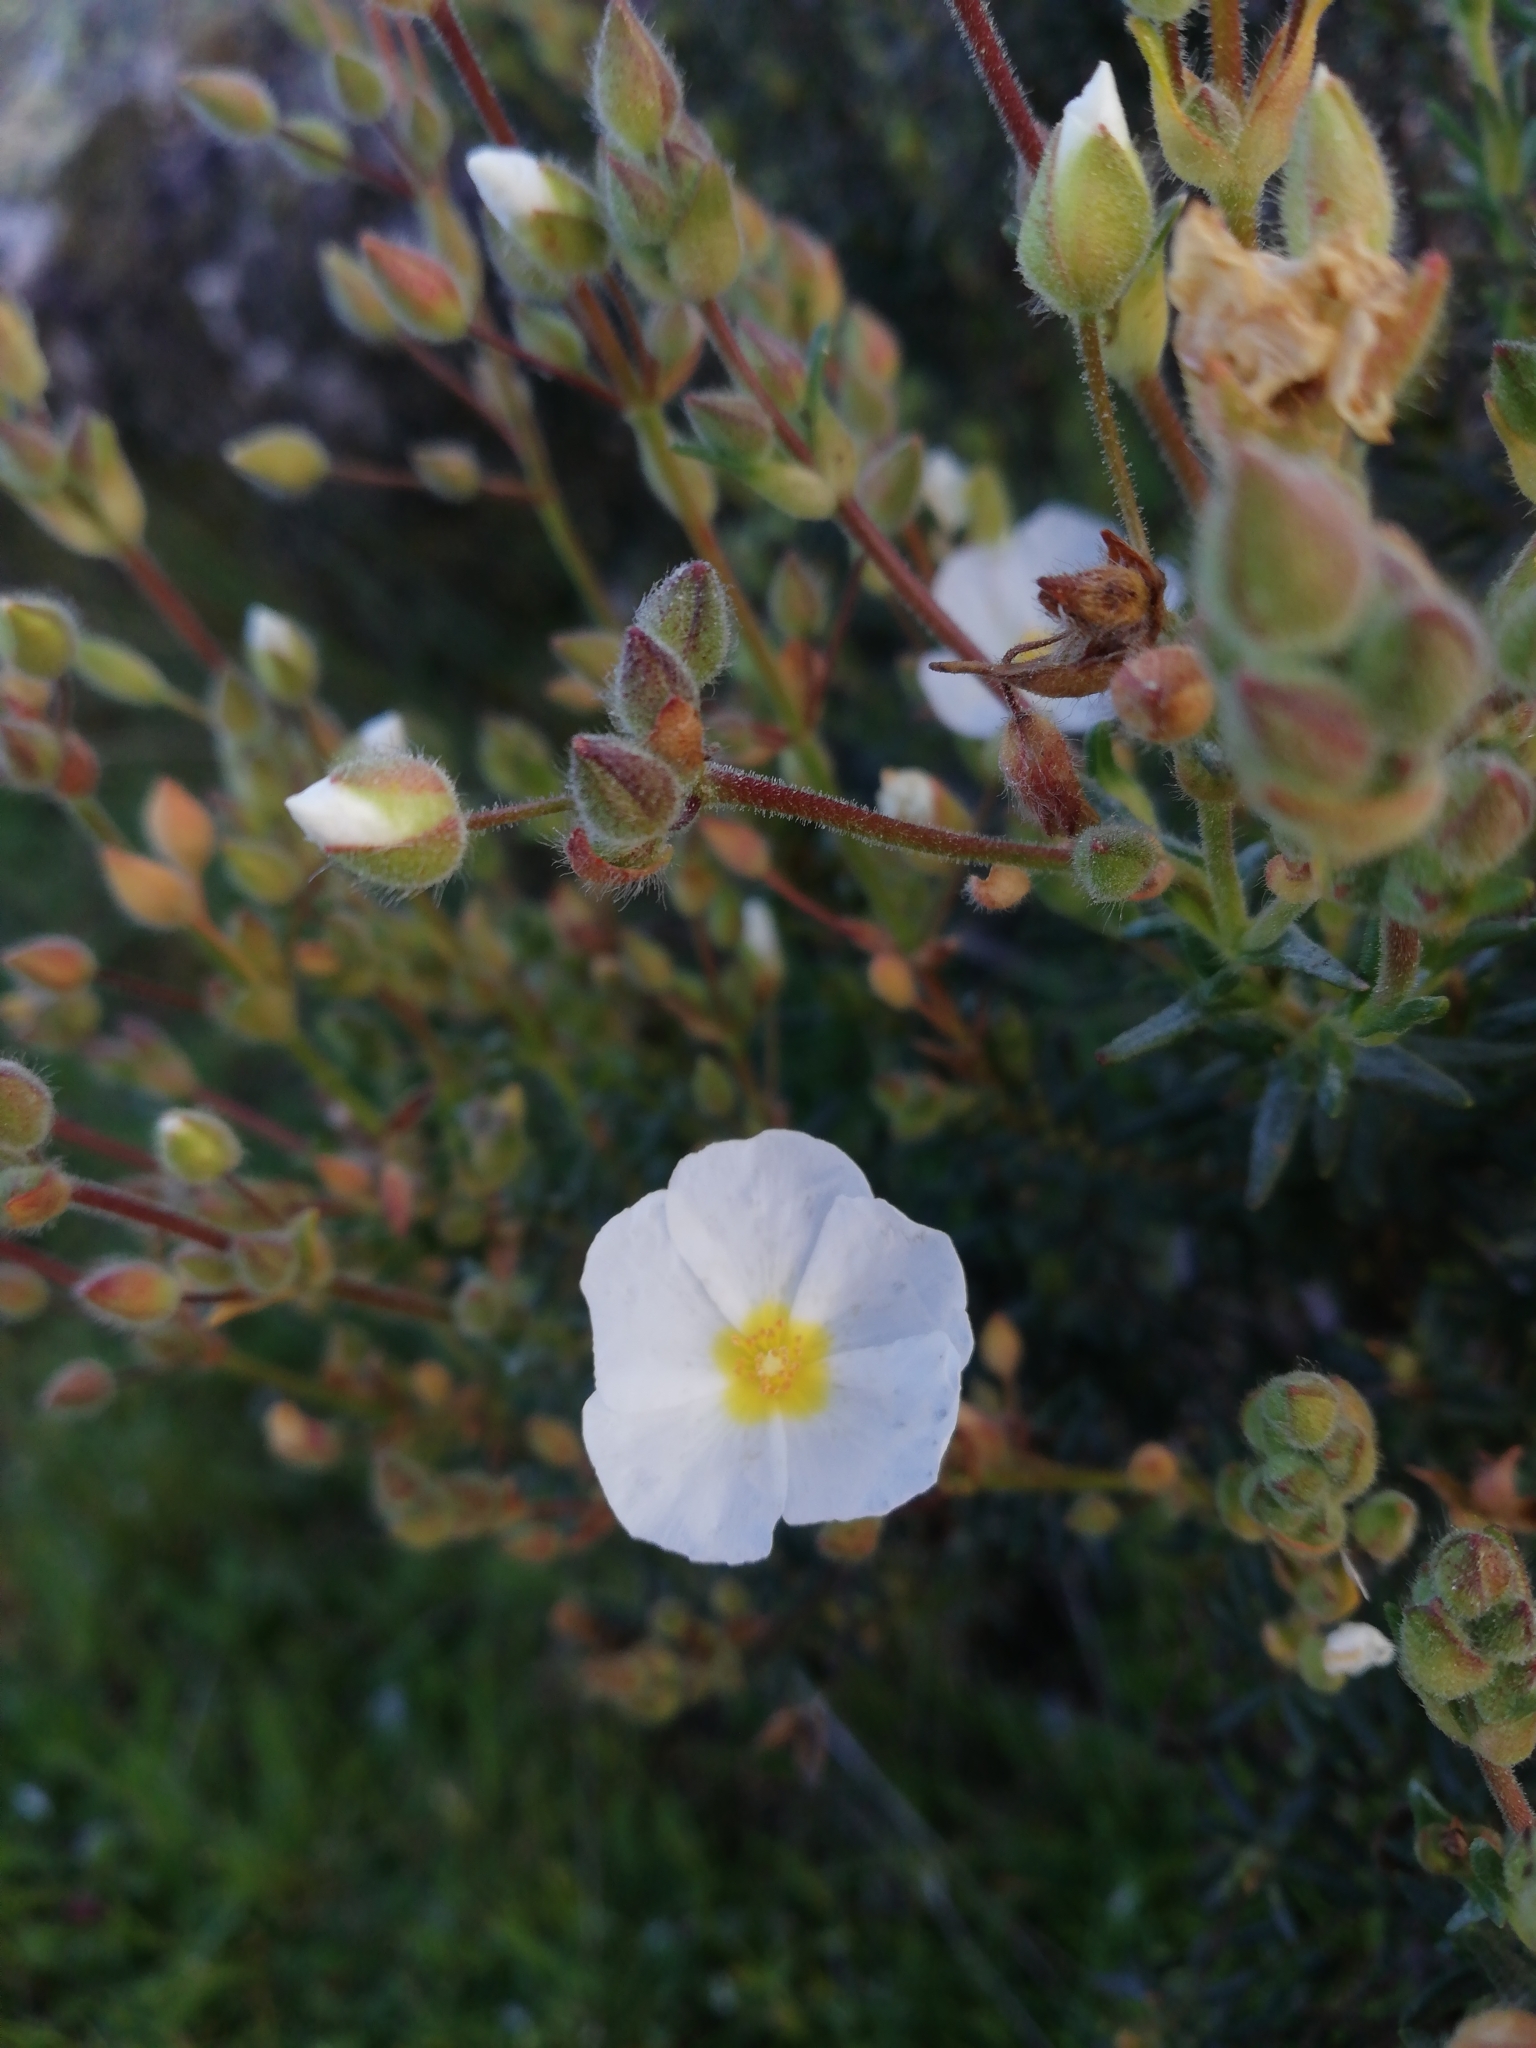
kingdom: Plantae
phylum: Tracheophyta
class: Magnoliopsida
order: Malvales
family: Cistaceae
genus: Halimium
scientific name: Halimium umbellatum
